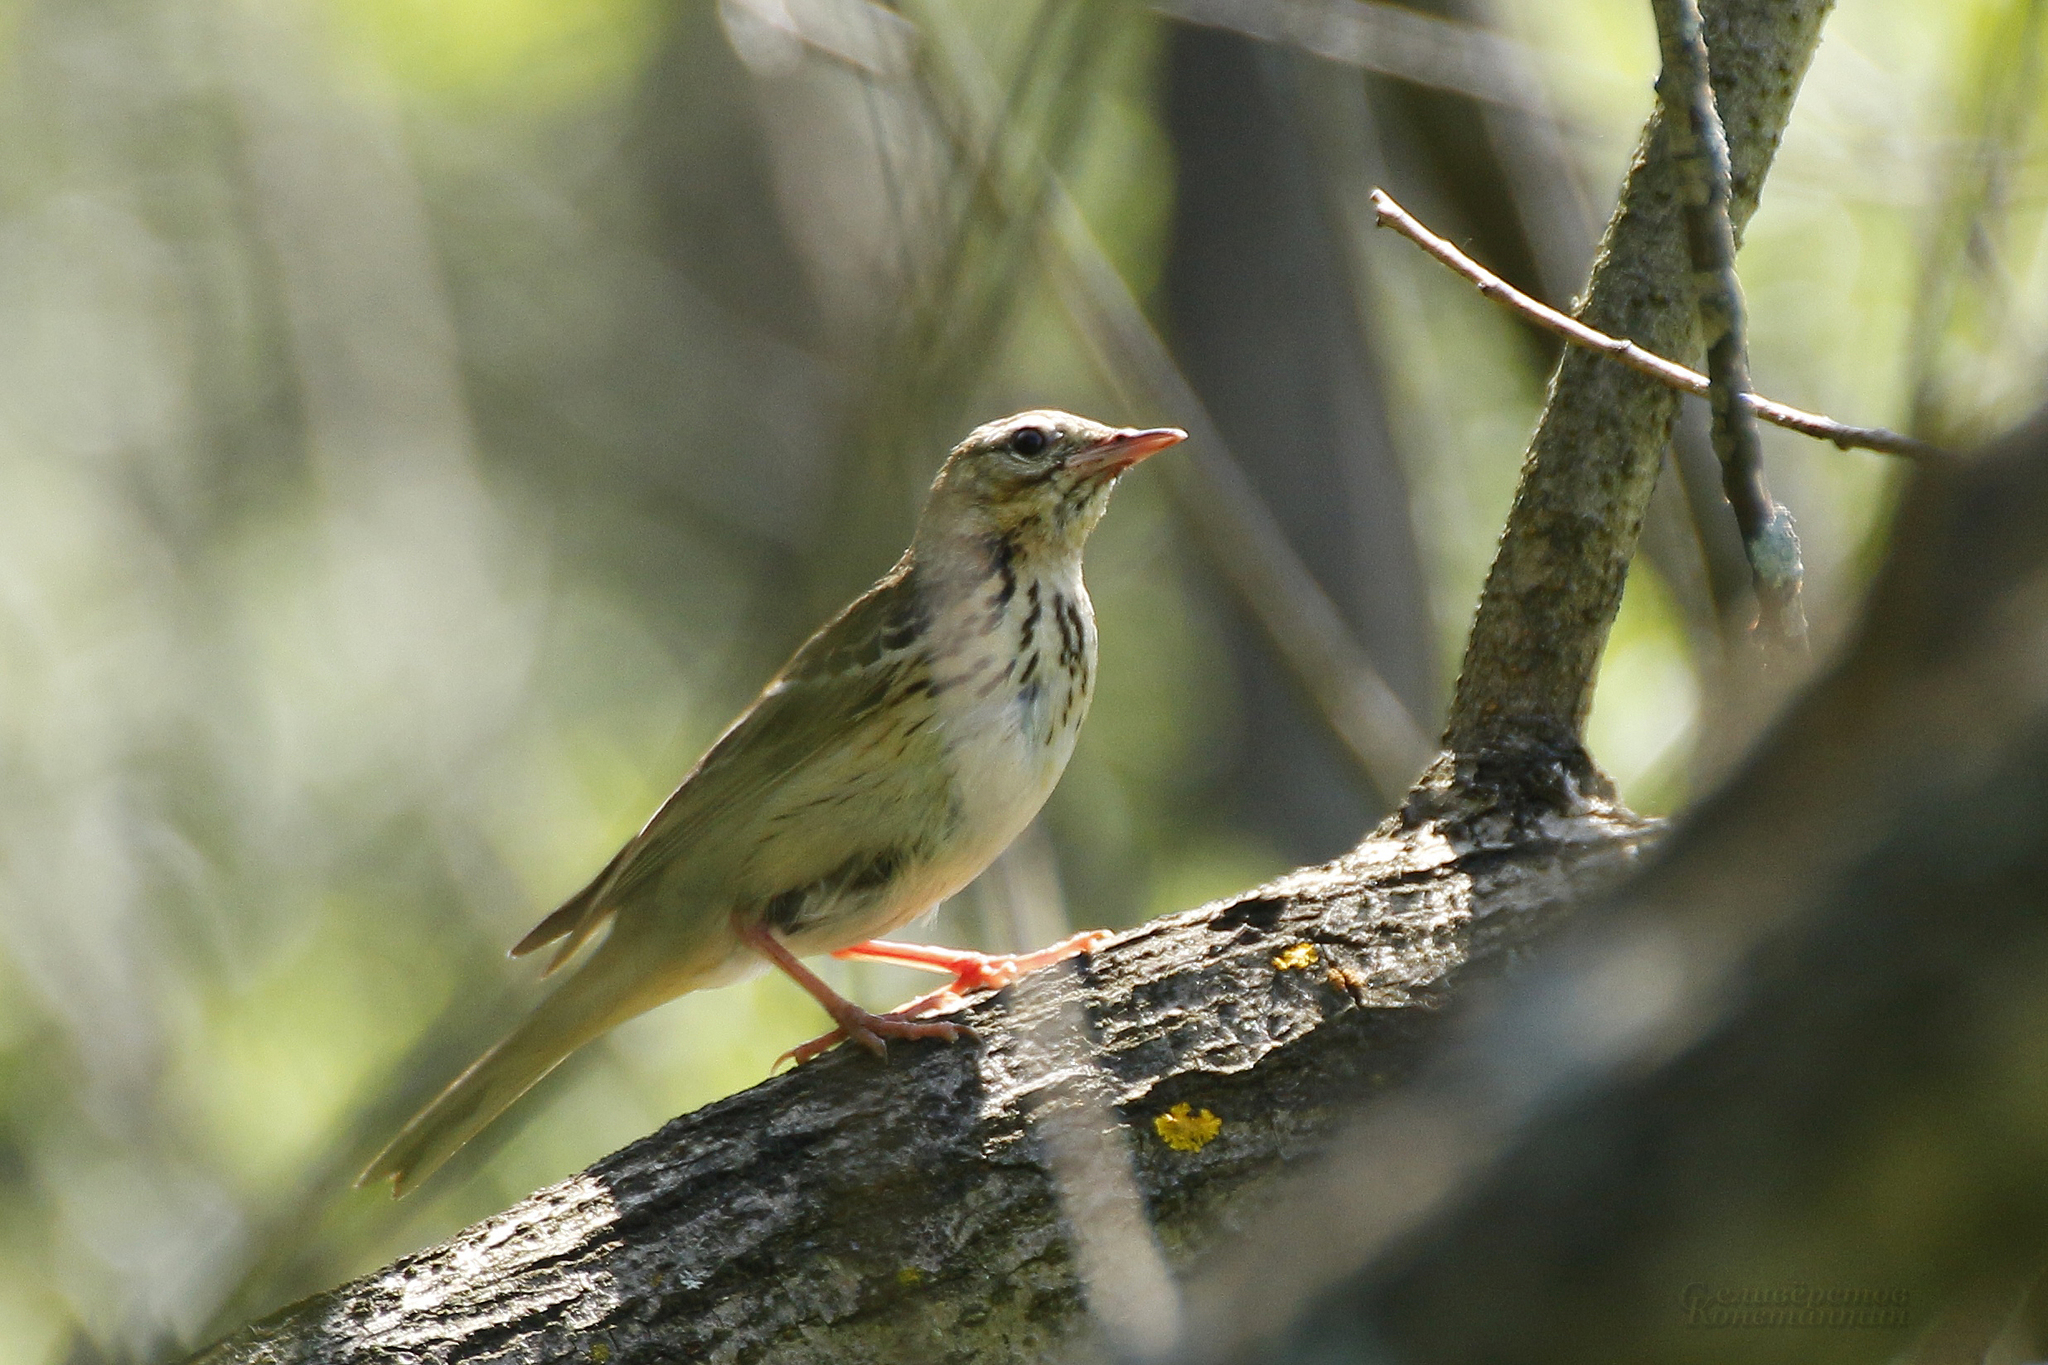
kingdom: Animalia
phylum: Chordata
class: Aves
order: Passeriformes
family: Motacillidae
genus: Anthus
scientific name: Anthus trivialis
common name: Tree pipit
